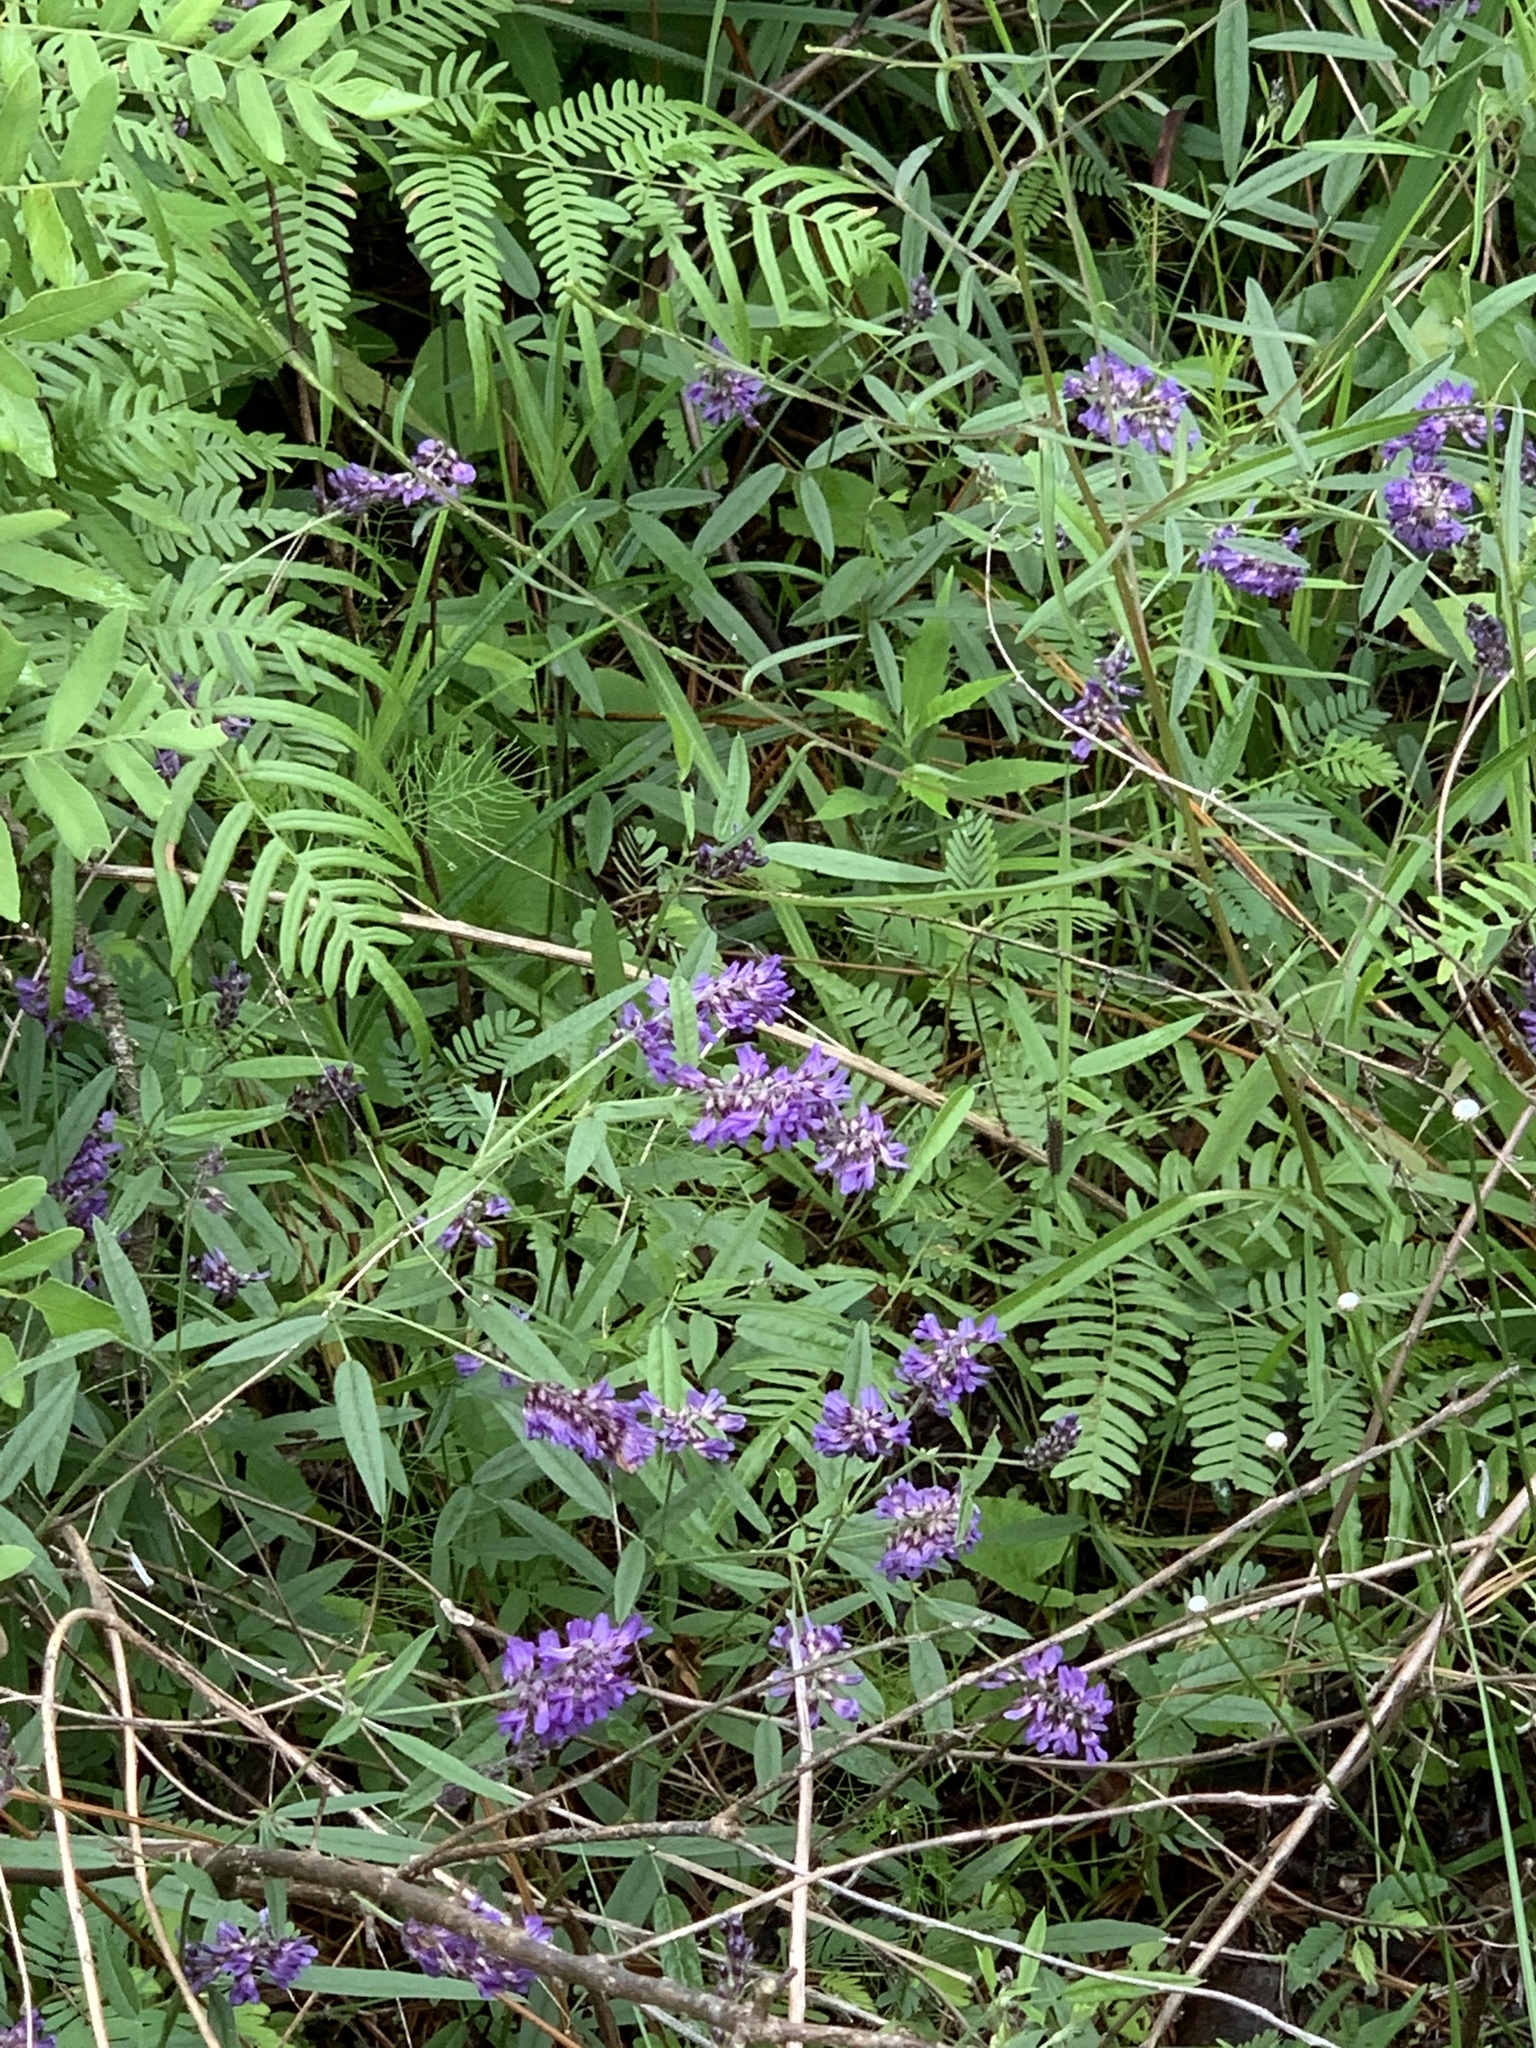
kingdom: Plantae
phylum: Tracheophyta
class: Magnoliopsida
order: Fabales
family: Fabaceae
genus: Orbexilum
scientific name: Orbexilum simplex
